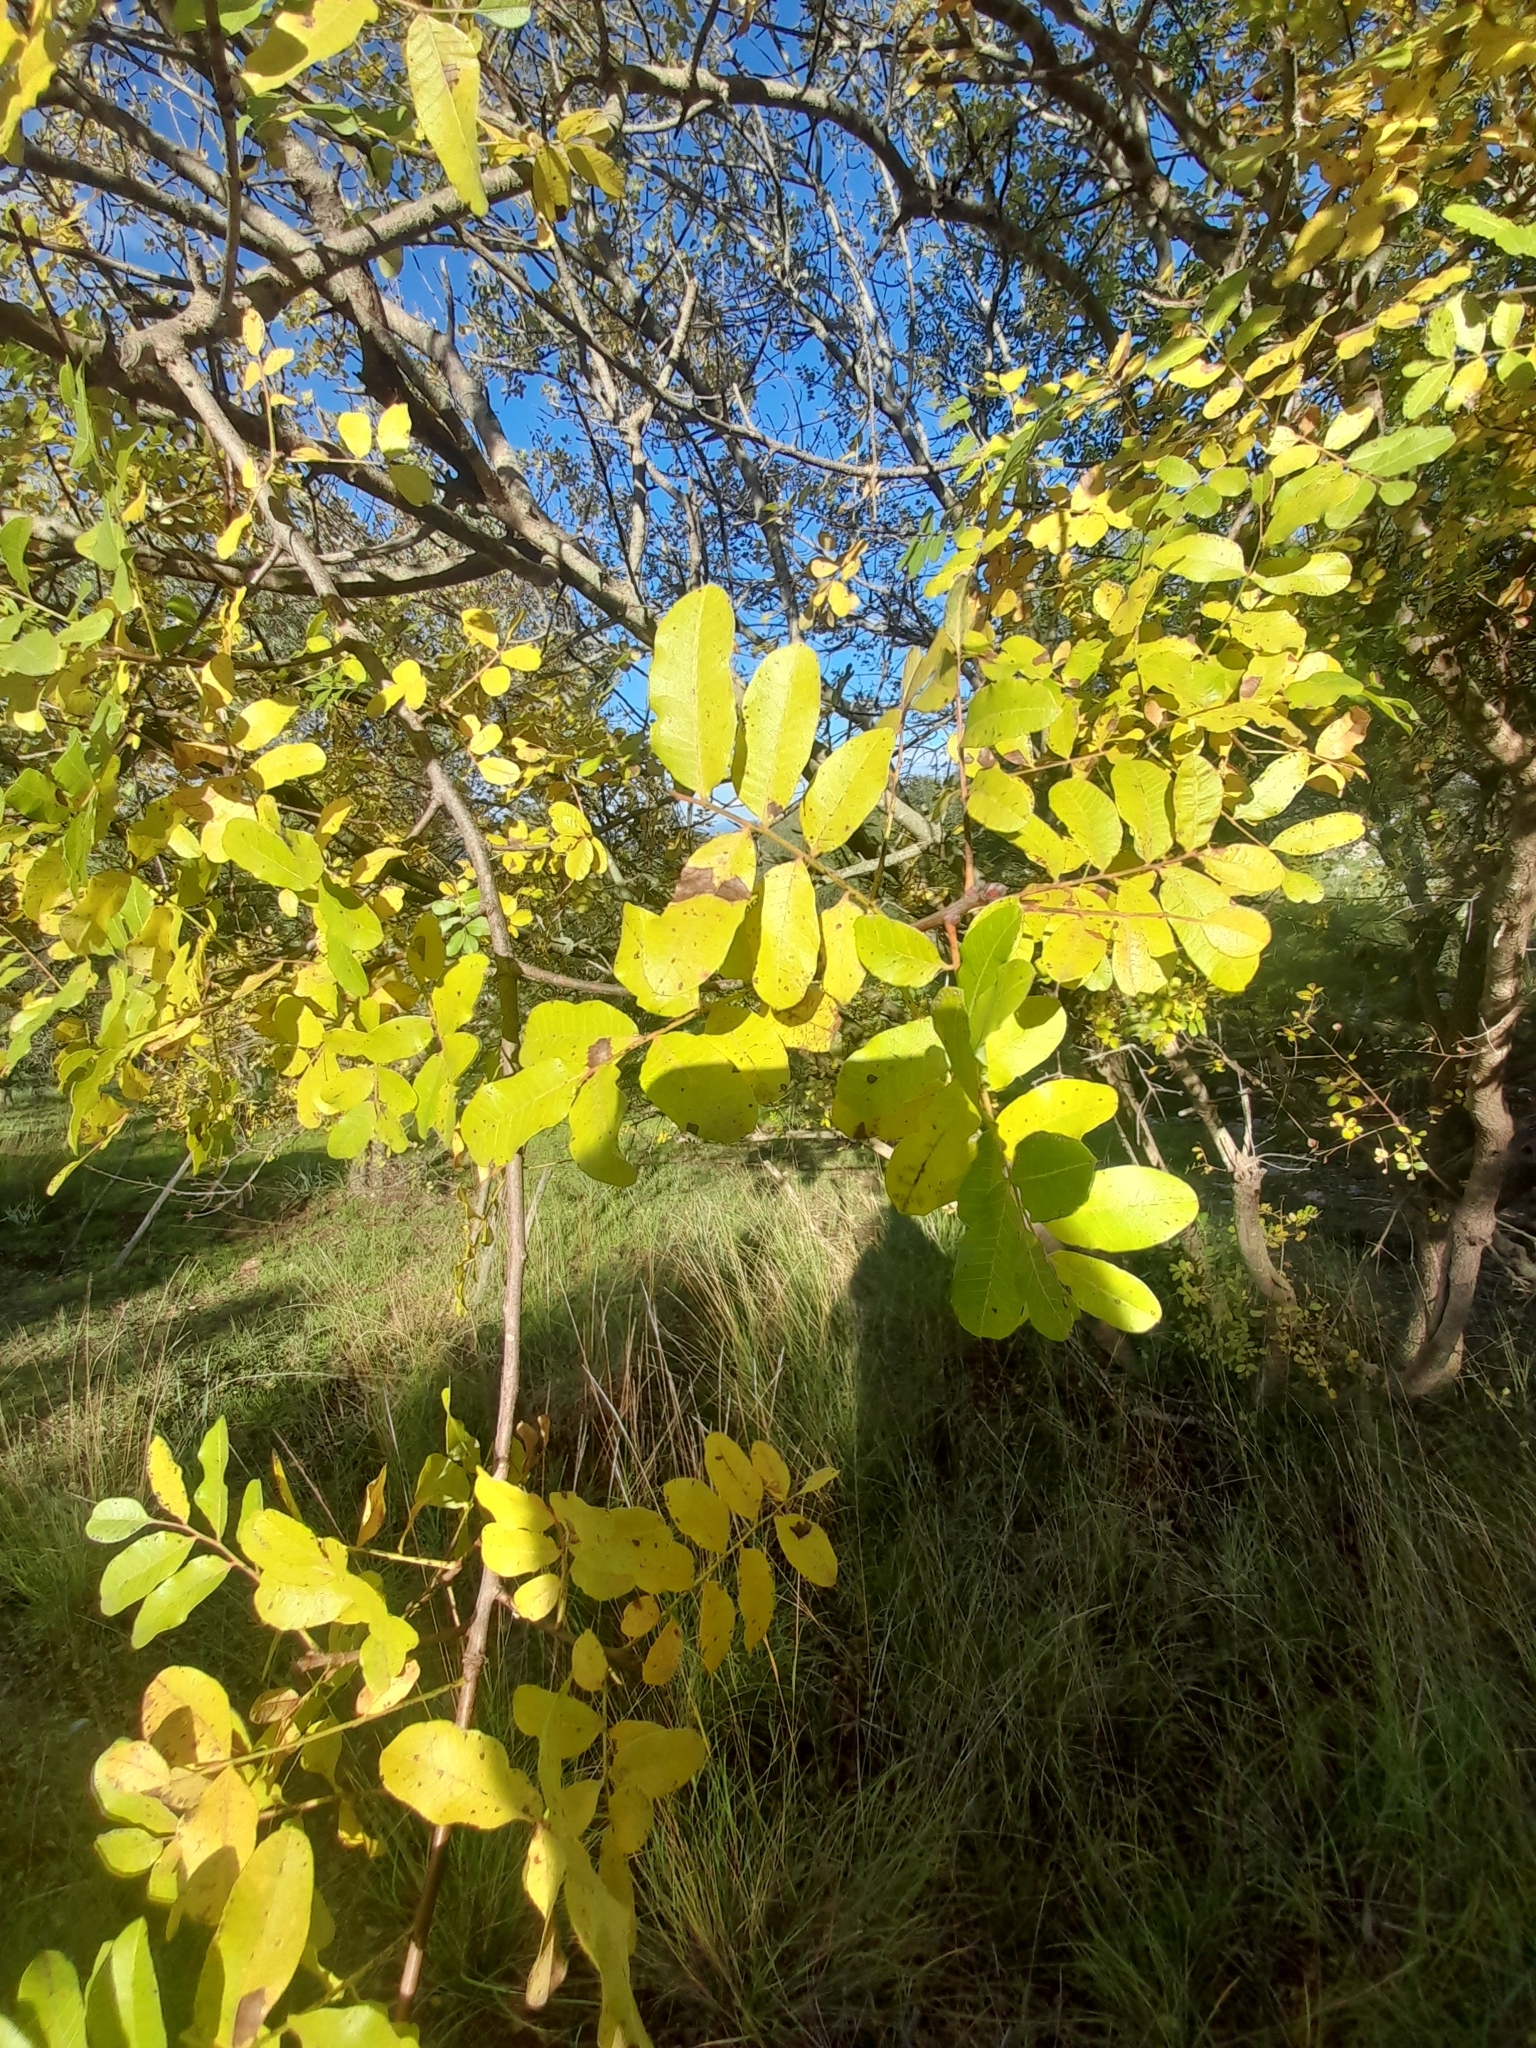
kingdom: Plantae
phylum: Tracheophyta
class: Magnoliopsida
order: Sapindales
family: Anacardiaceae
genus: Pistacia
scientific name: Pistacia terebinthus
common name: Terebinth
